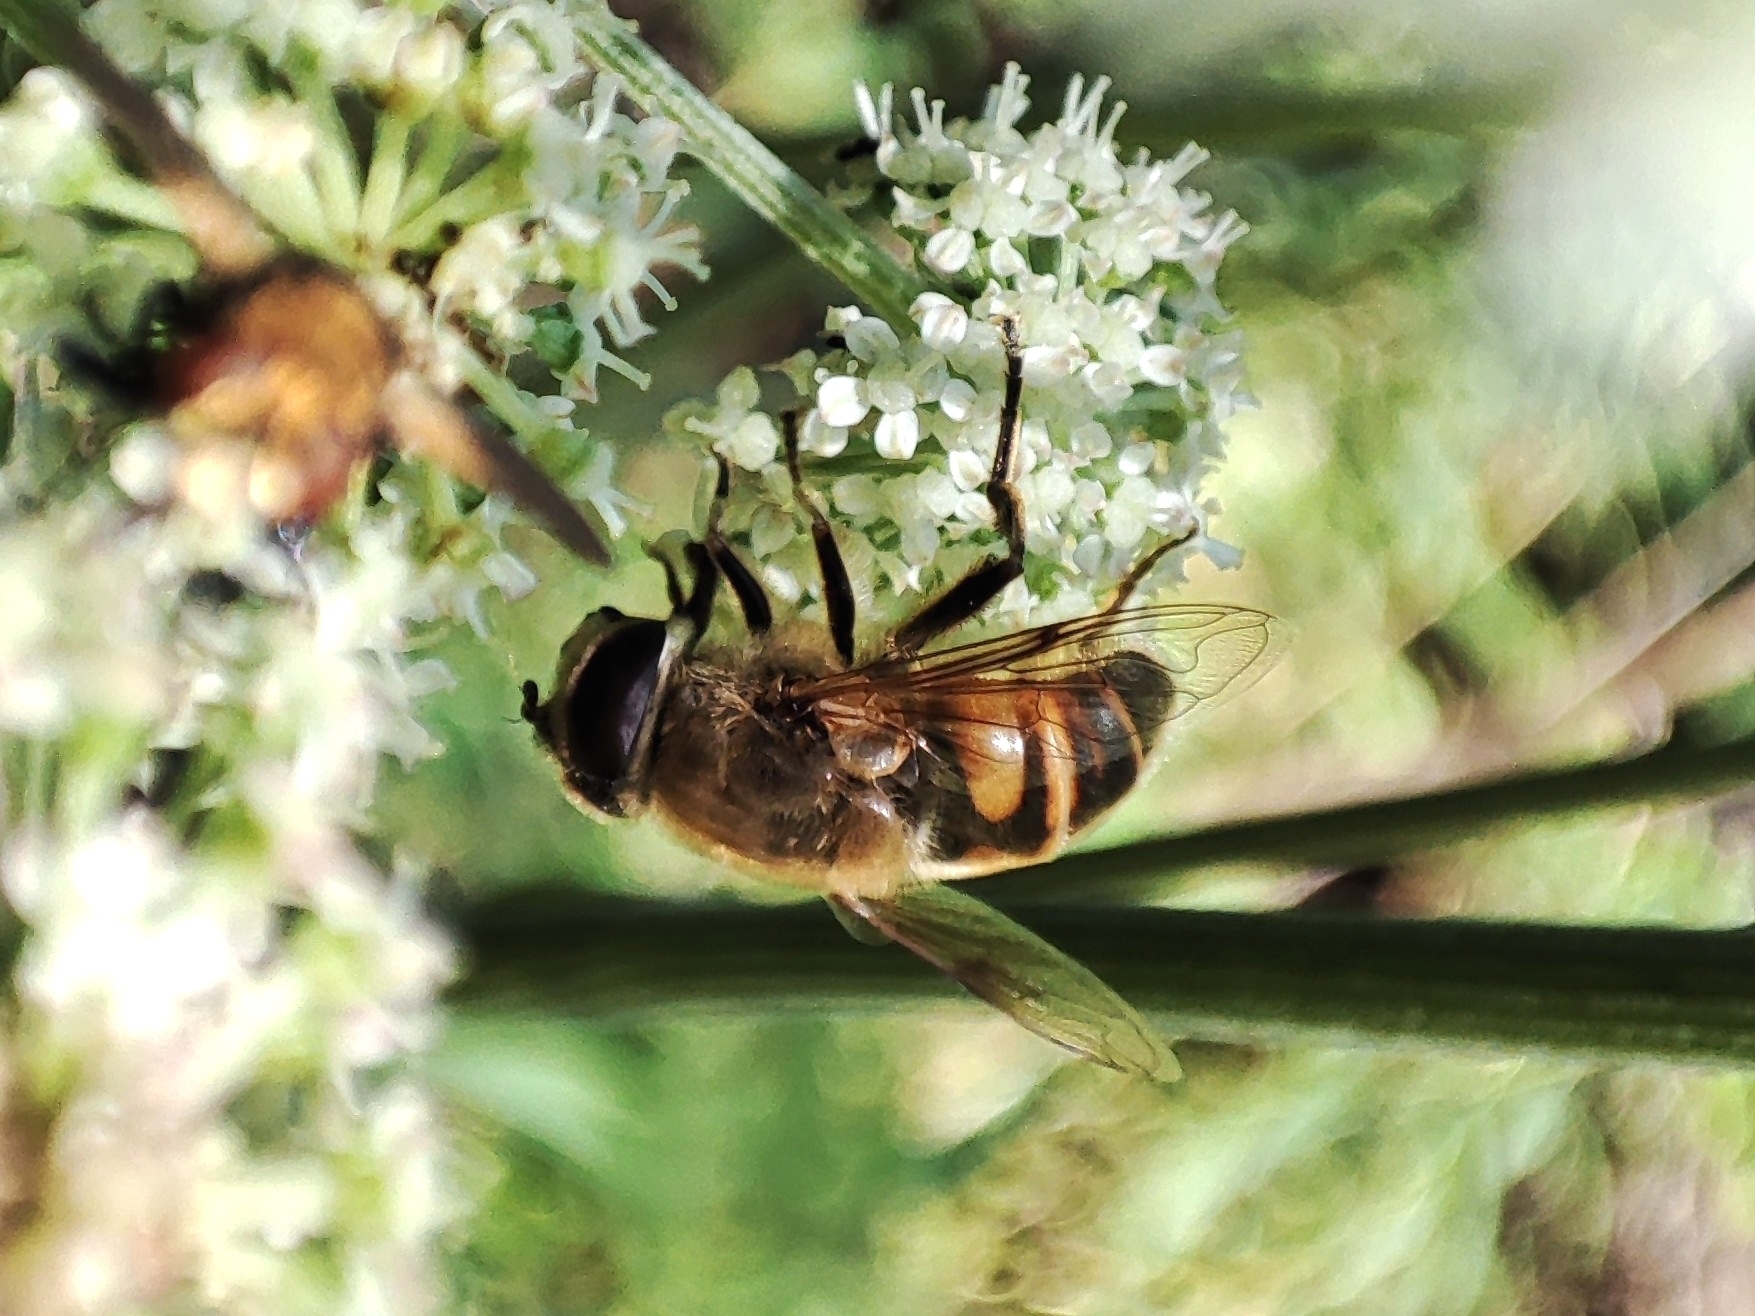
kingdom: Animalia
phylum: Arthropoda
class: Insecta
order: Diptera
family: Syrphidae
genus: Eristalis
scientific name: Eristalis tenax
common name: Drone fly
